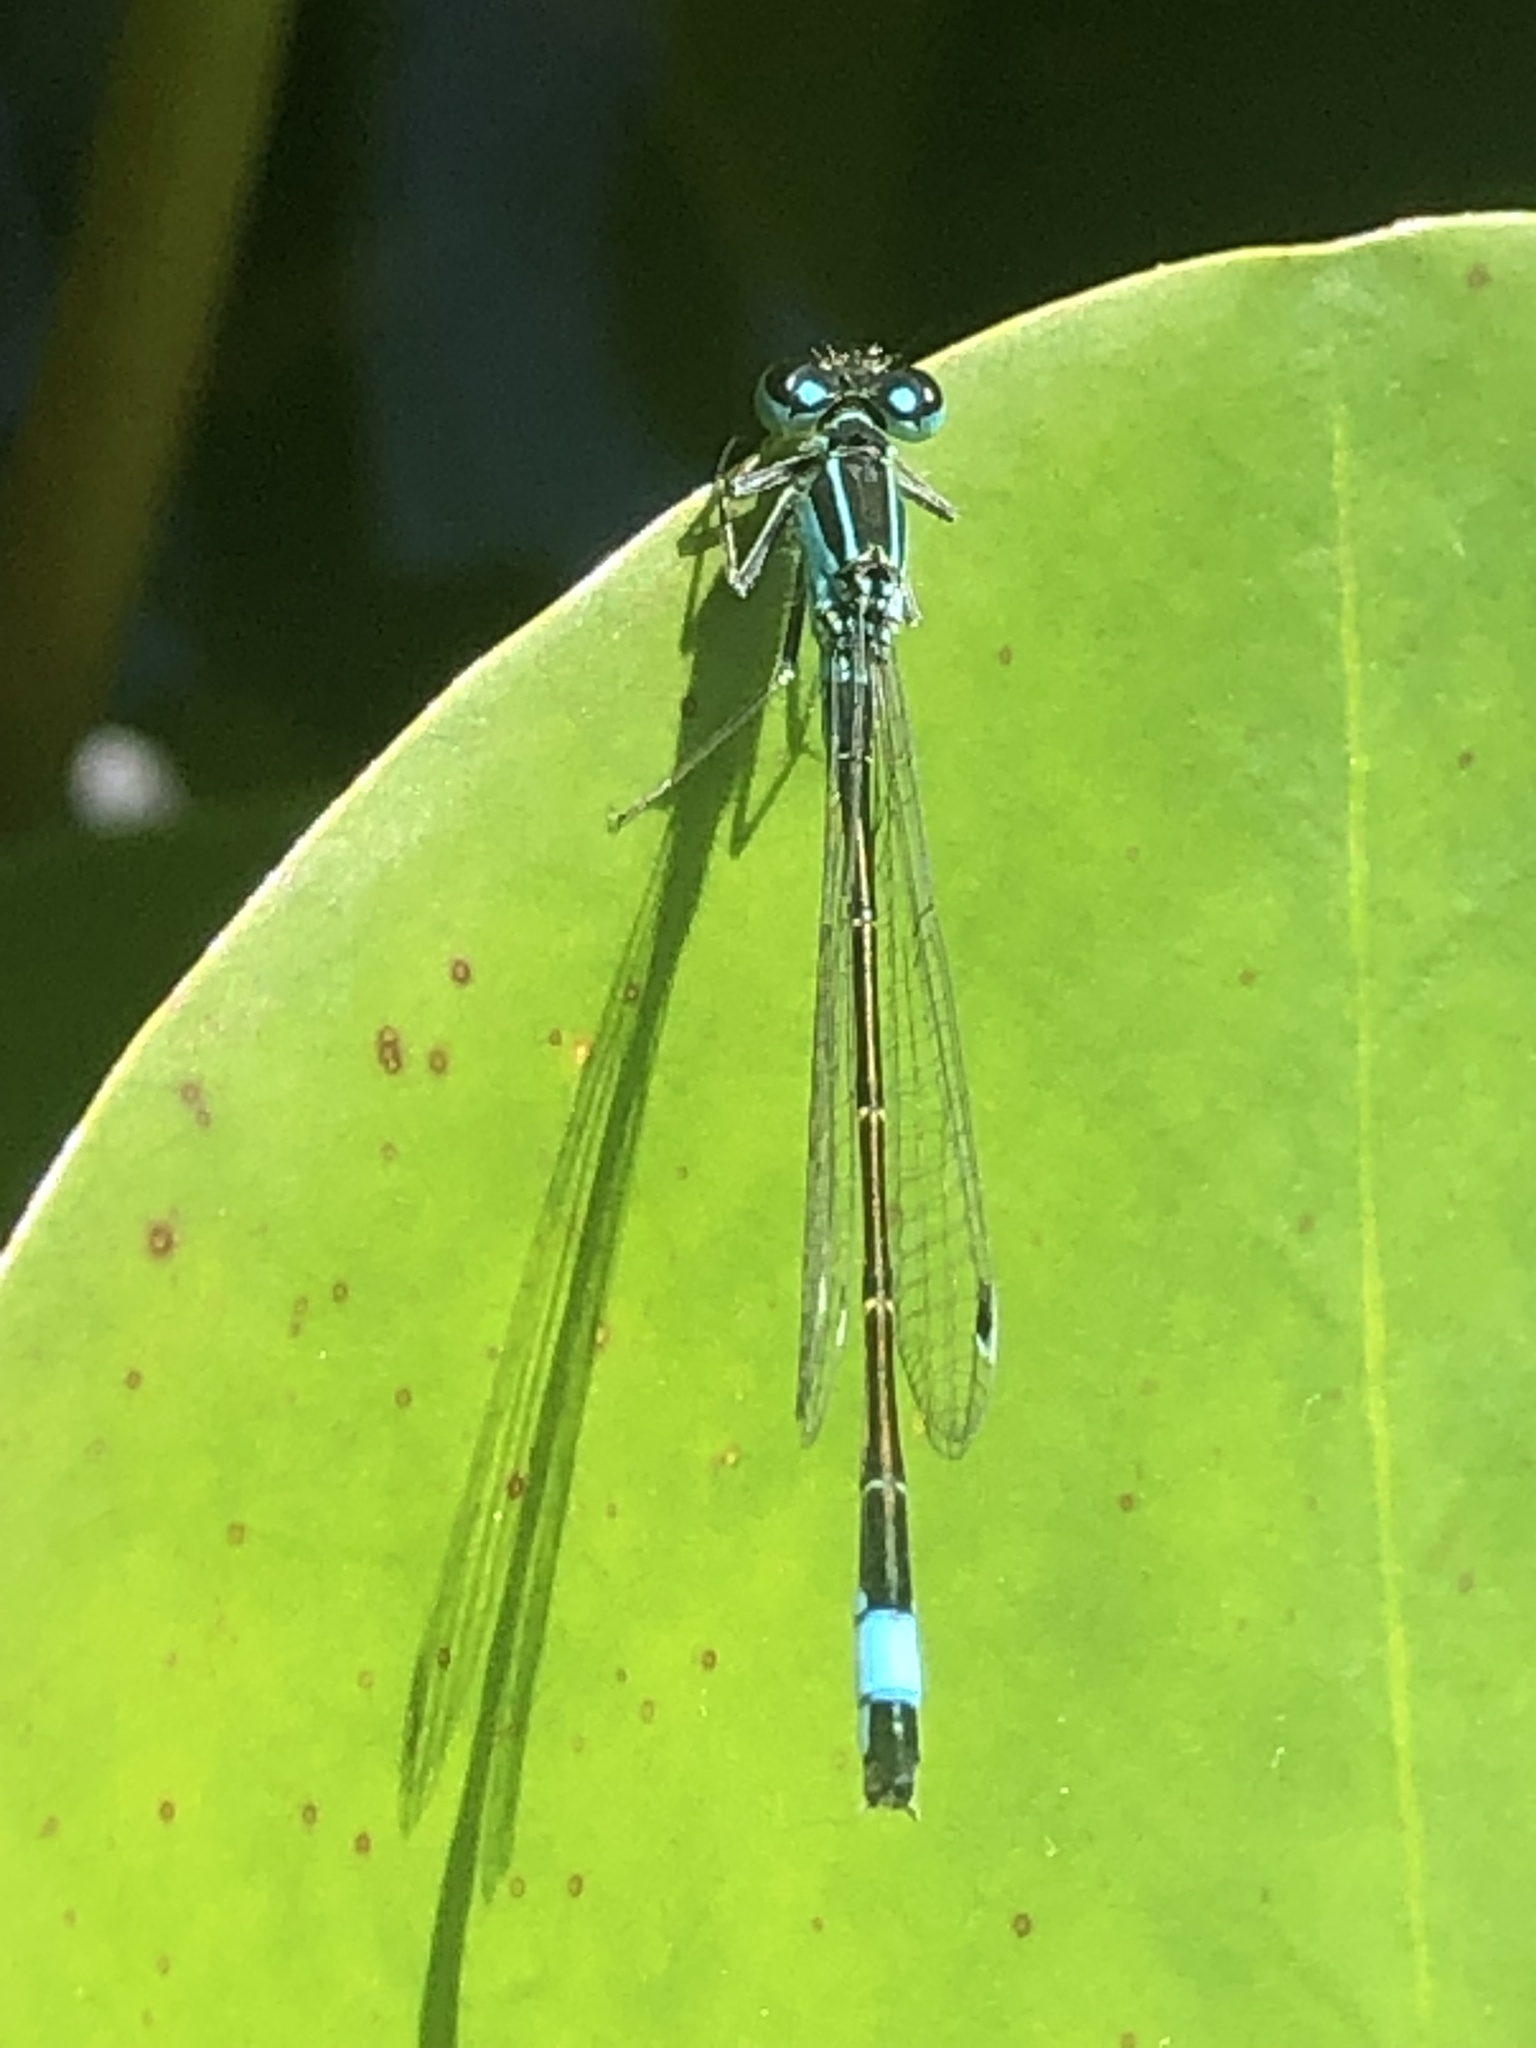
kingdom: Animalia
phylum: Arthropoda
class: Insecta
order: Odonata
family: Coenagrionidae
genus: Ischnura
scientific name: Ischnura elegans
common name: Blue-tailed damselfly
